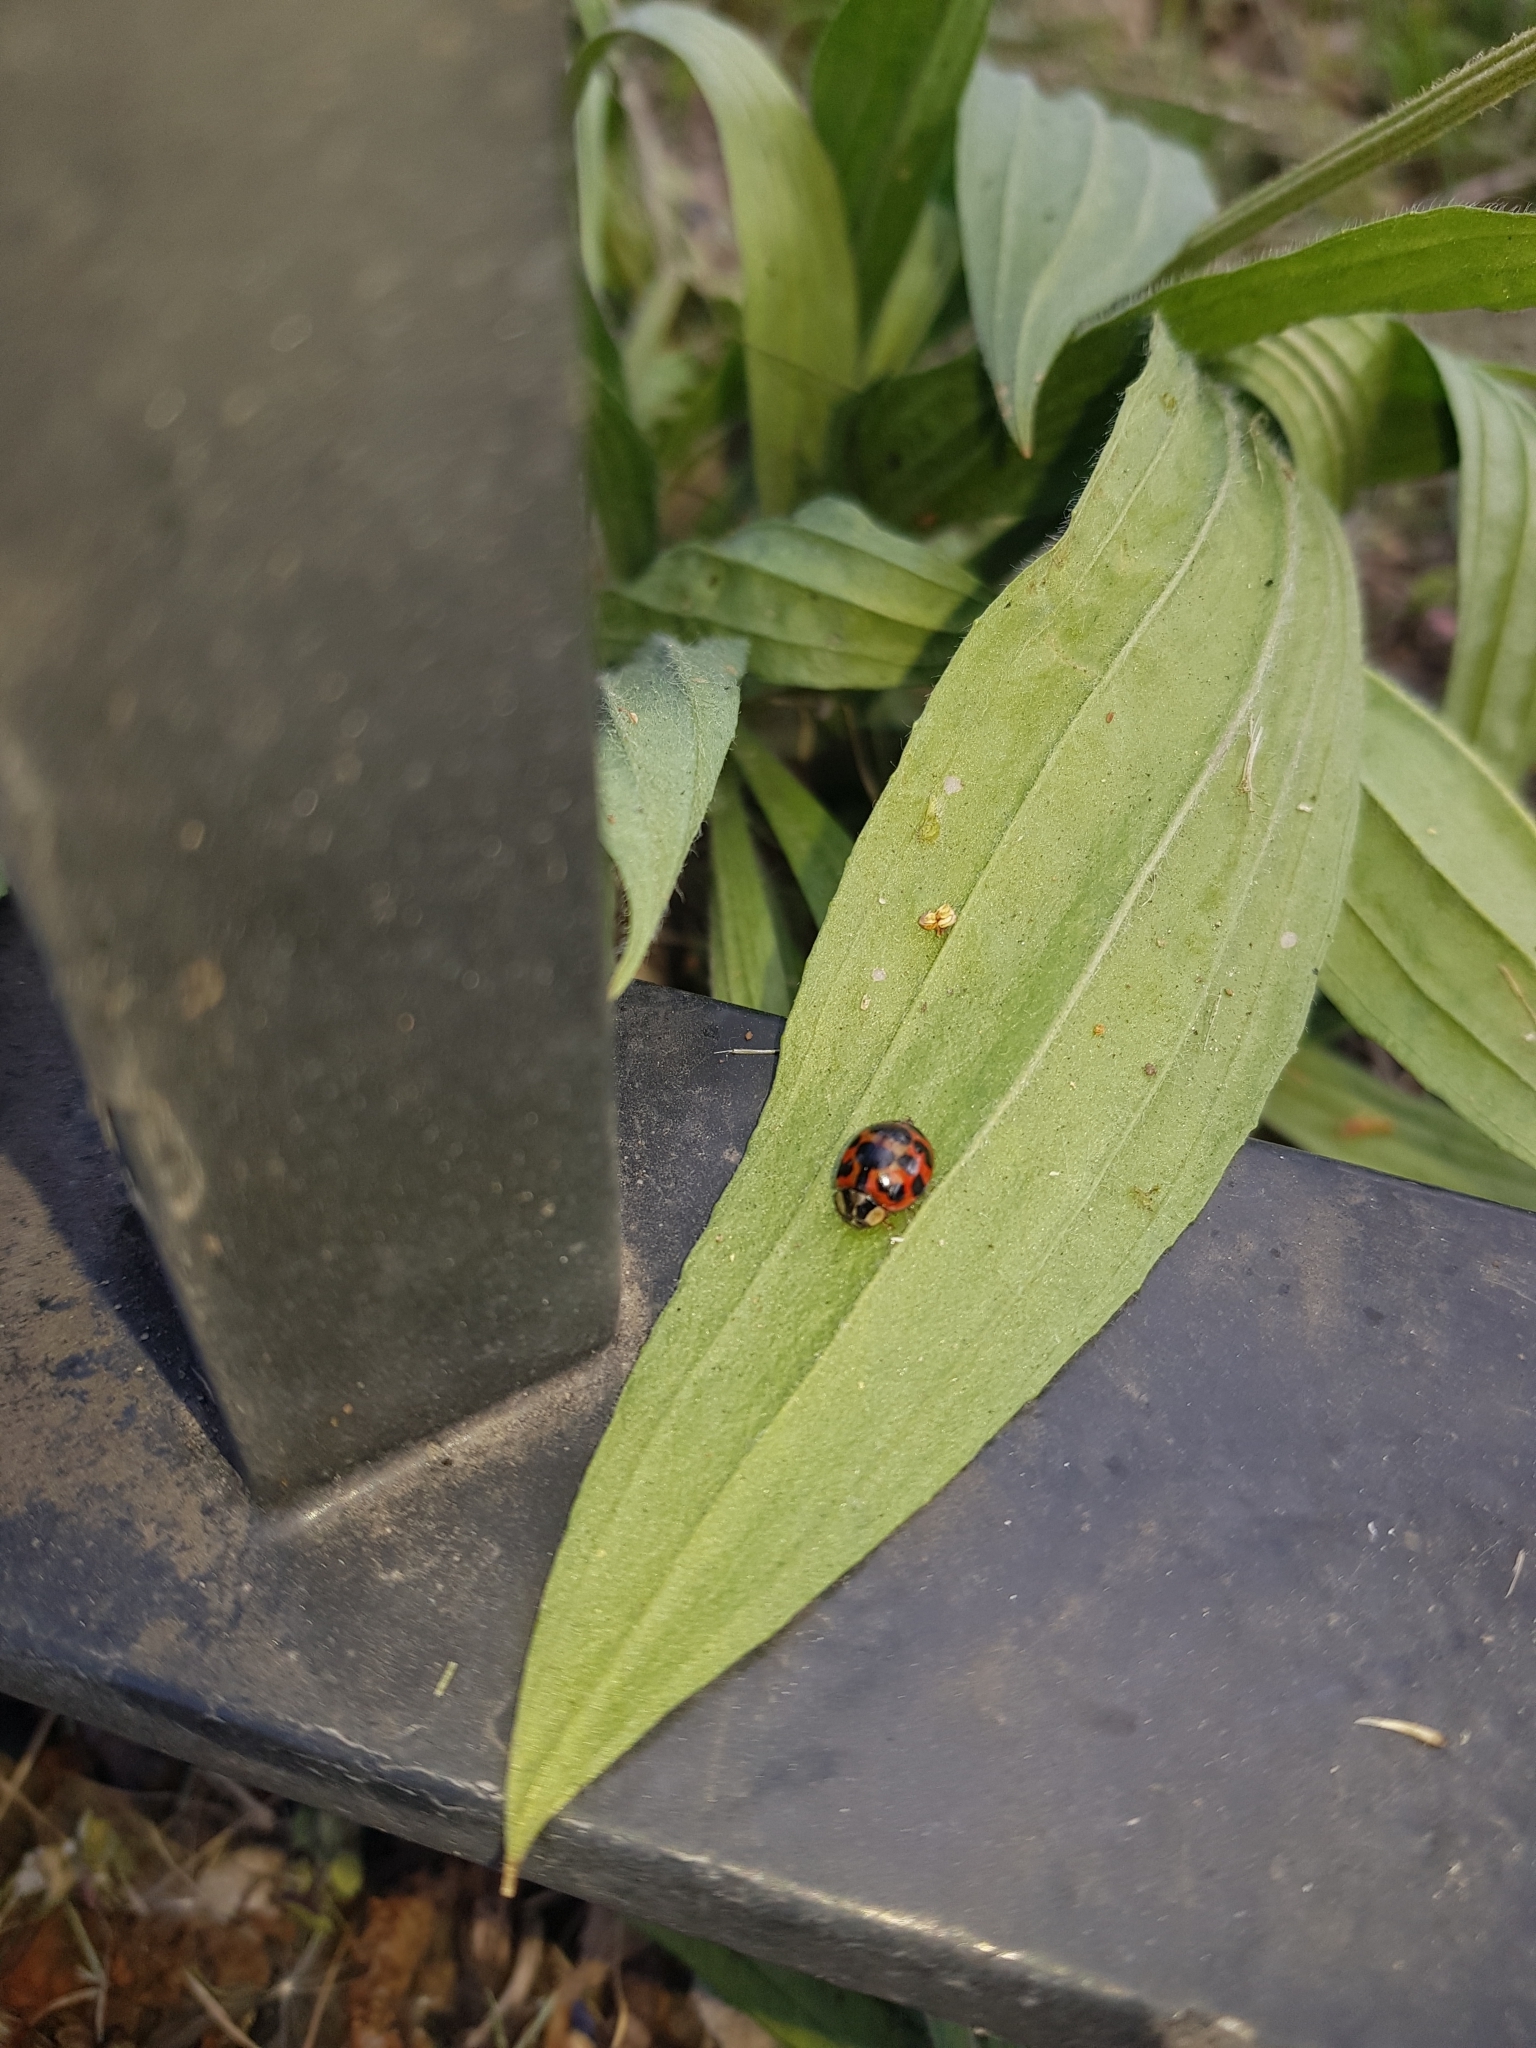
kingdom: Animalia
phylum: Arthropoda
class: Insecta
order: Coleoptera
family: Coccinellidae
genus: Harmonia
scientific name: Harmonia axyridis
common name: Harlequin ladybird
